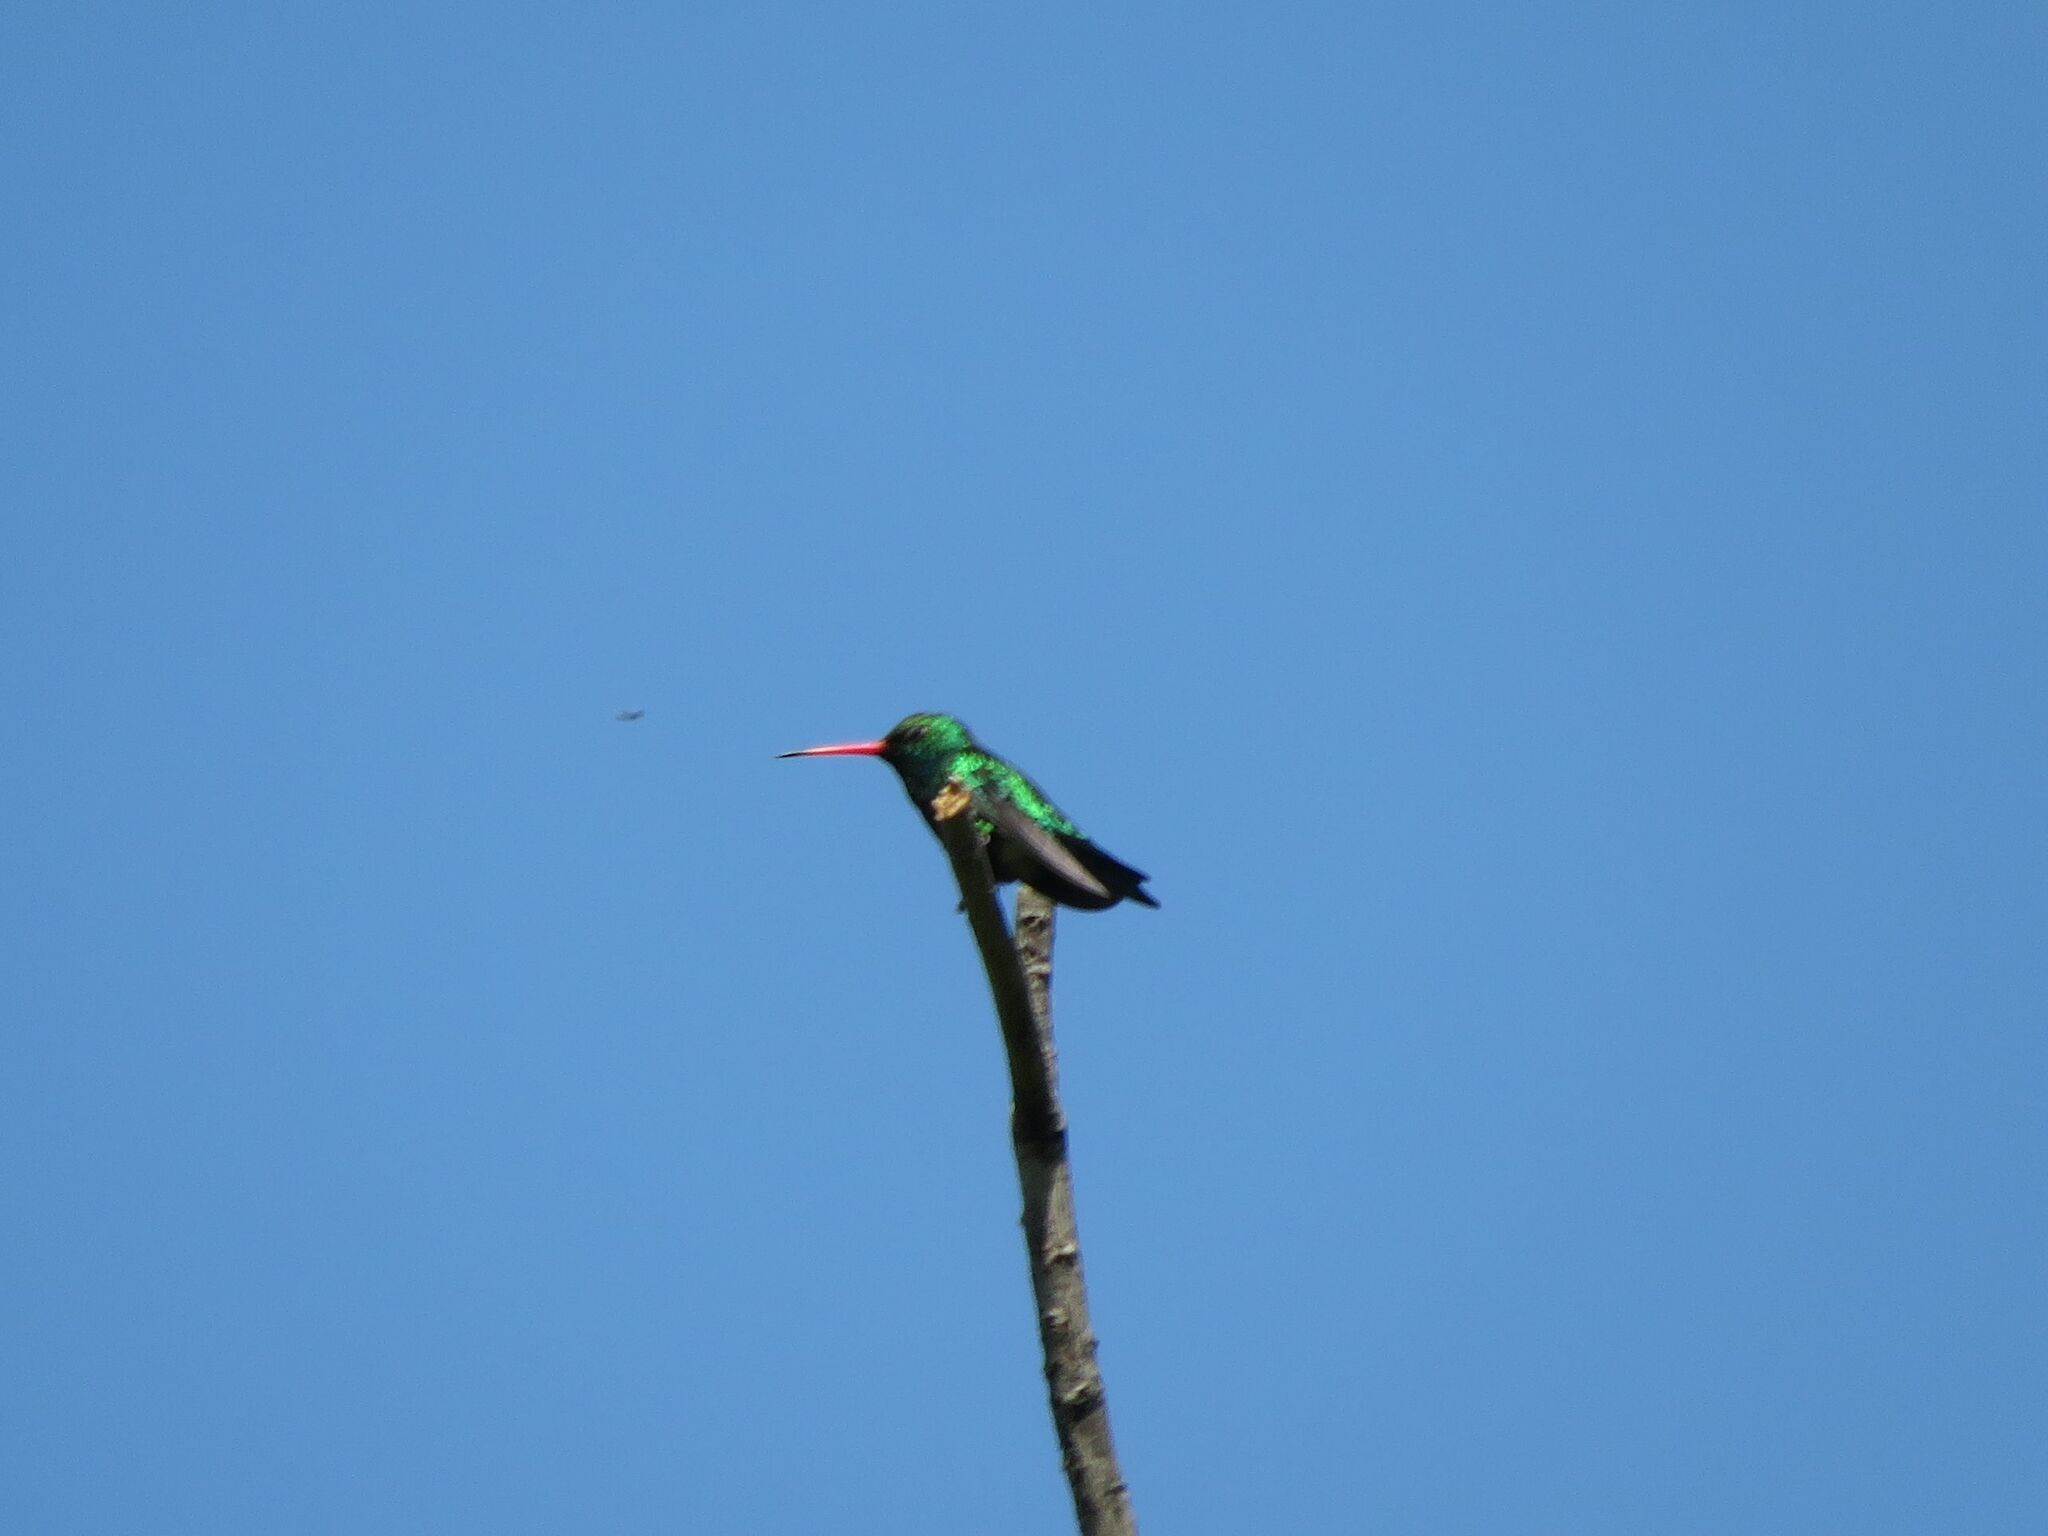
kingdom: Animalia
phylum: Chordata
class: Aves
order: Apodiformes
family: Trochilidae
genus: Chlorostilbon
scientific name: Chlorostilbon lucidus
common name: Glittering-bellied emerald
